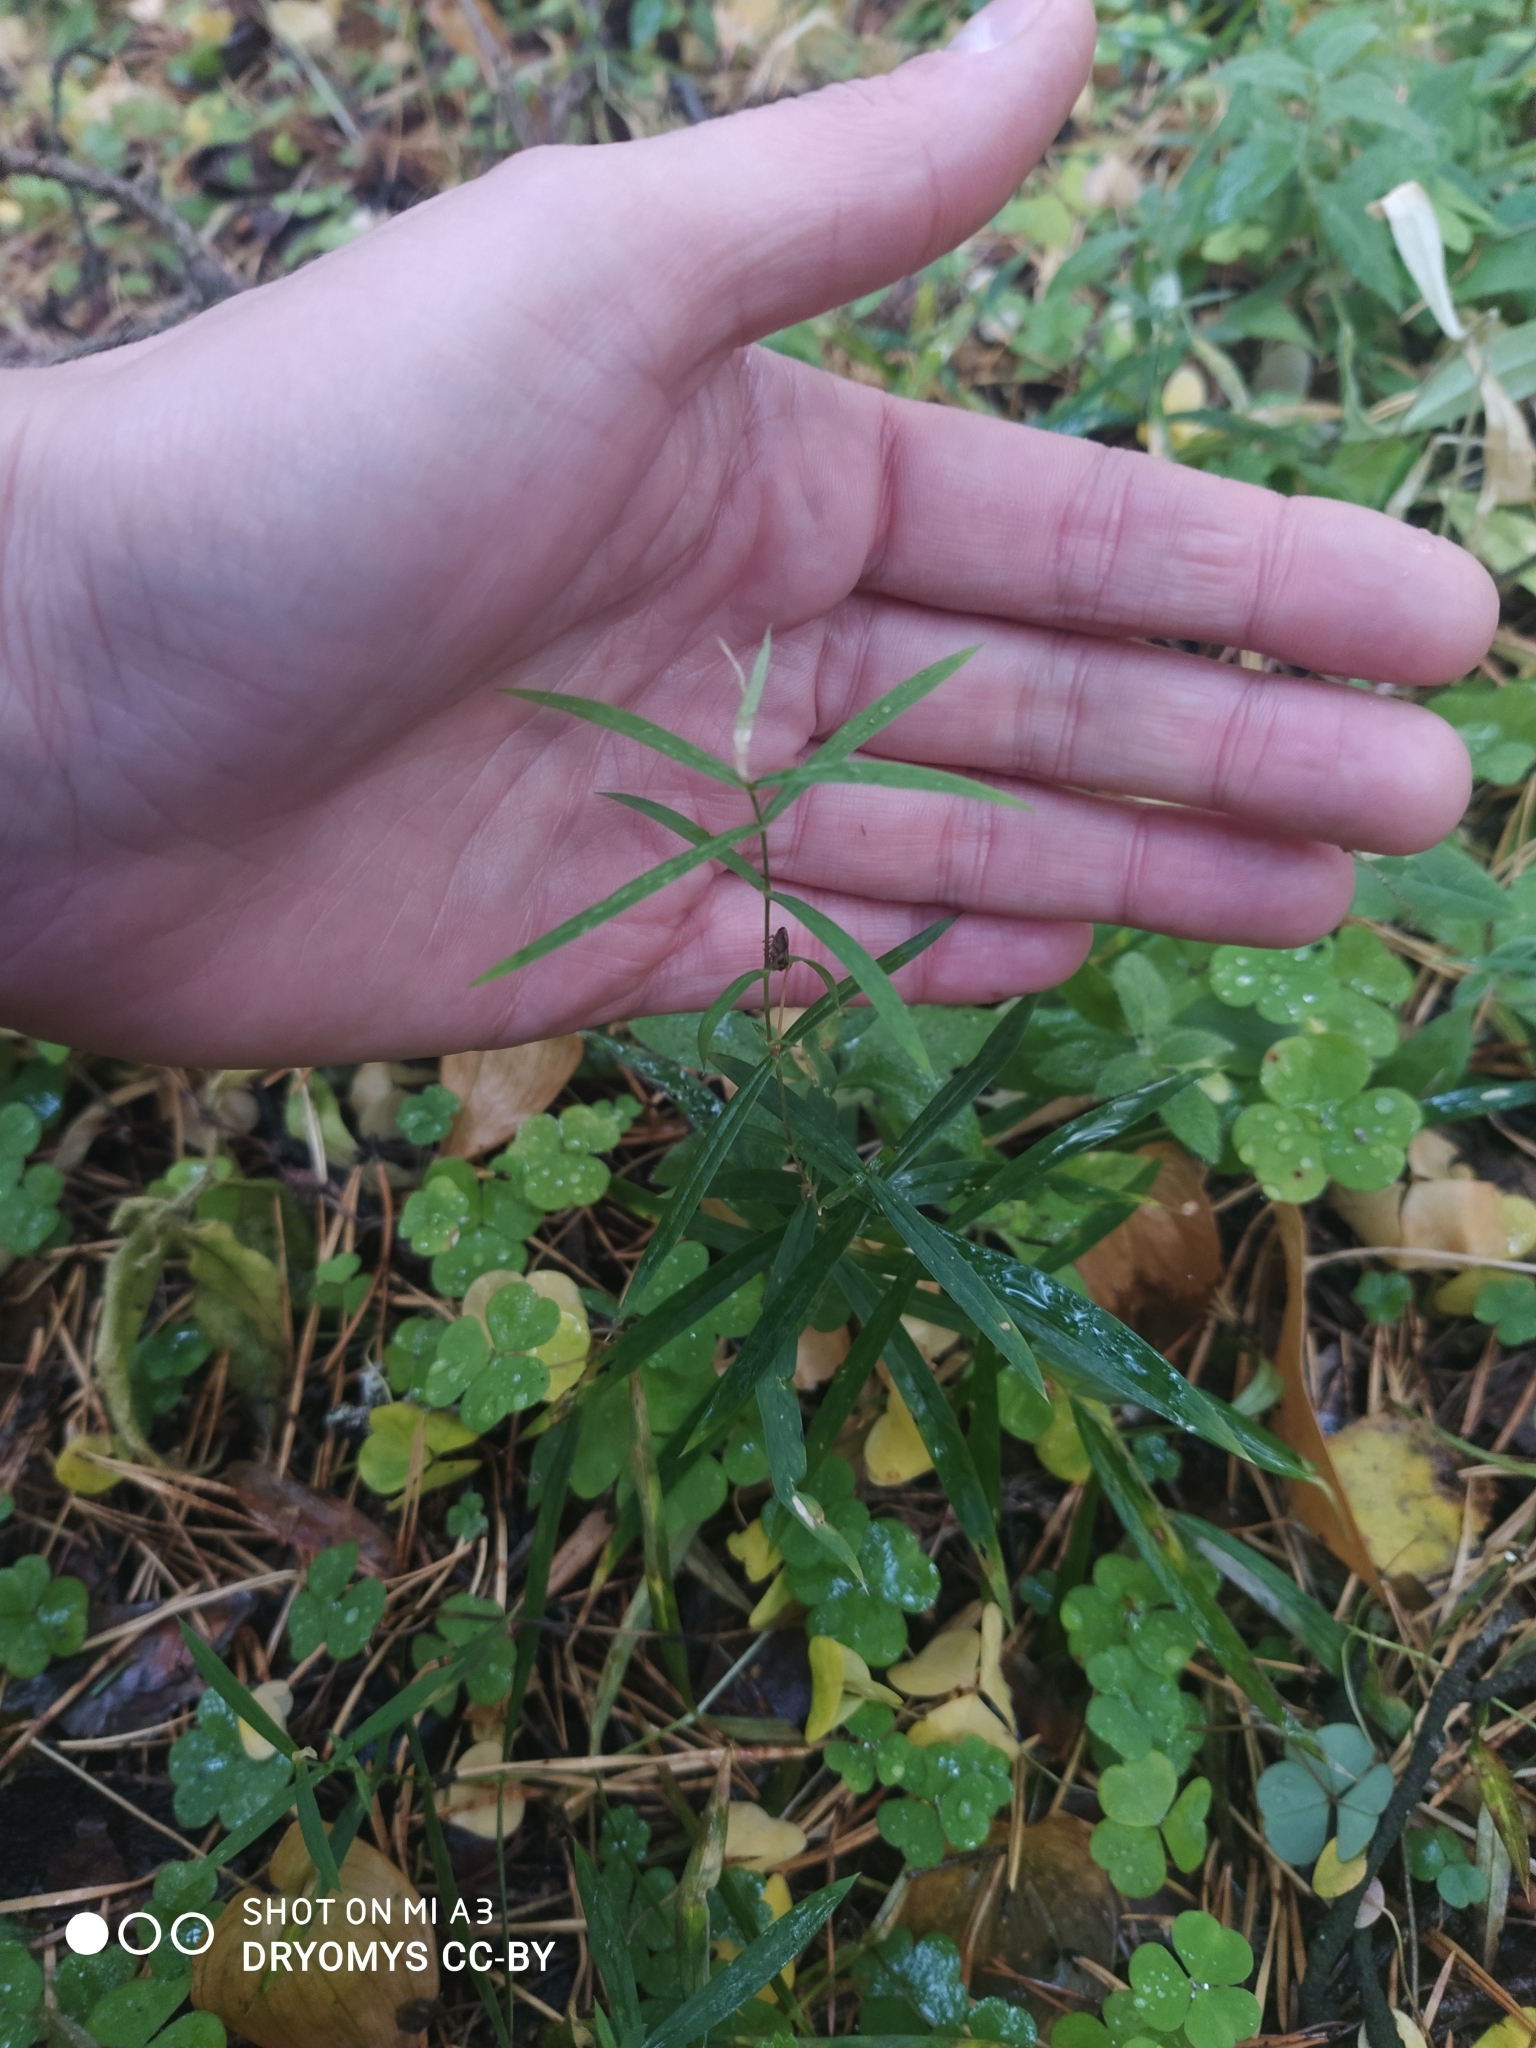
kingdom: Plantae
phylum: Tracheophyta
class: Magnoliopsida
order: Caryophyllales
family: Caryophyllaceae
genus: Rabelera
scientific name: Rabelera holostea
